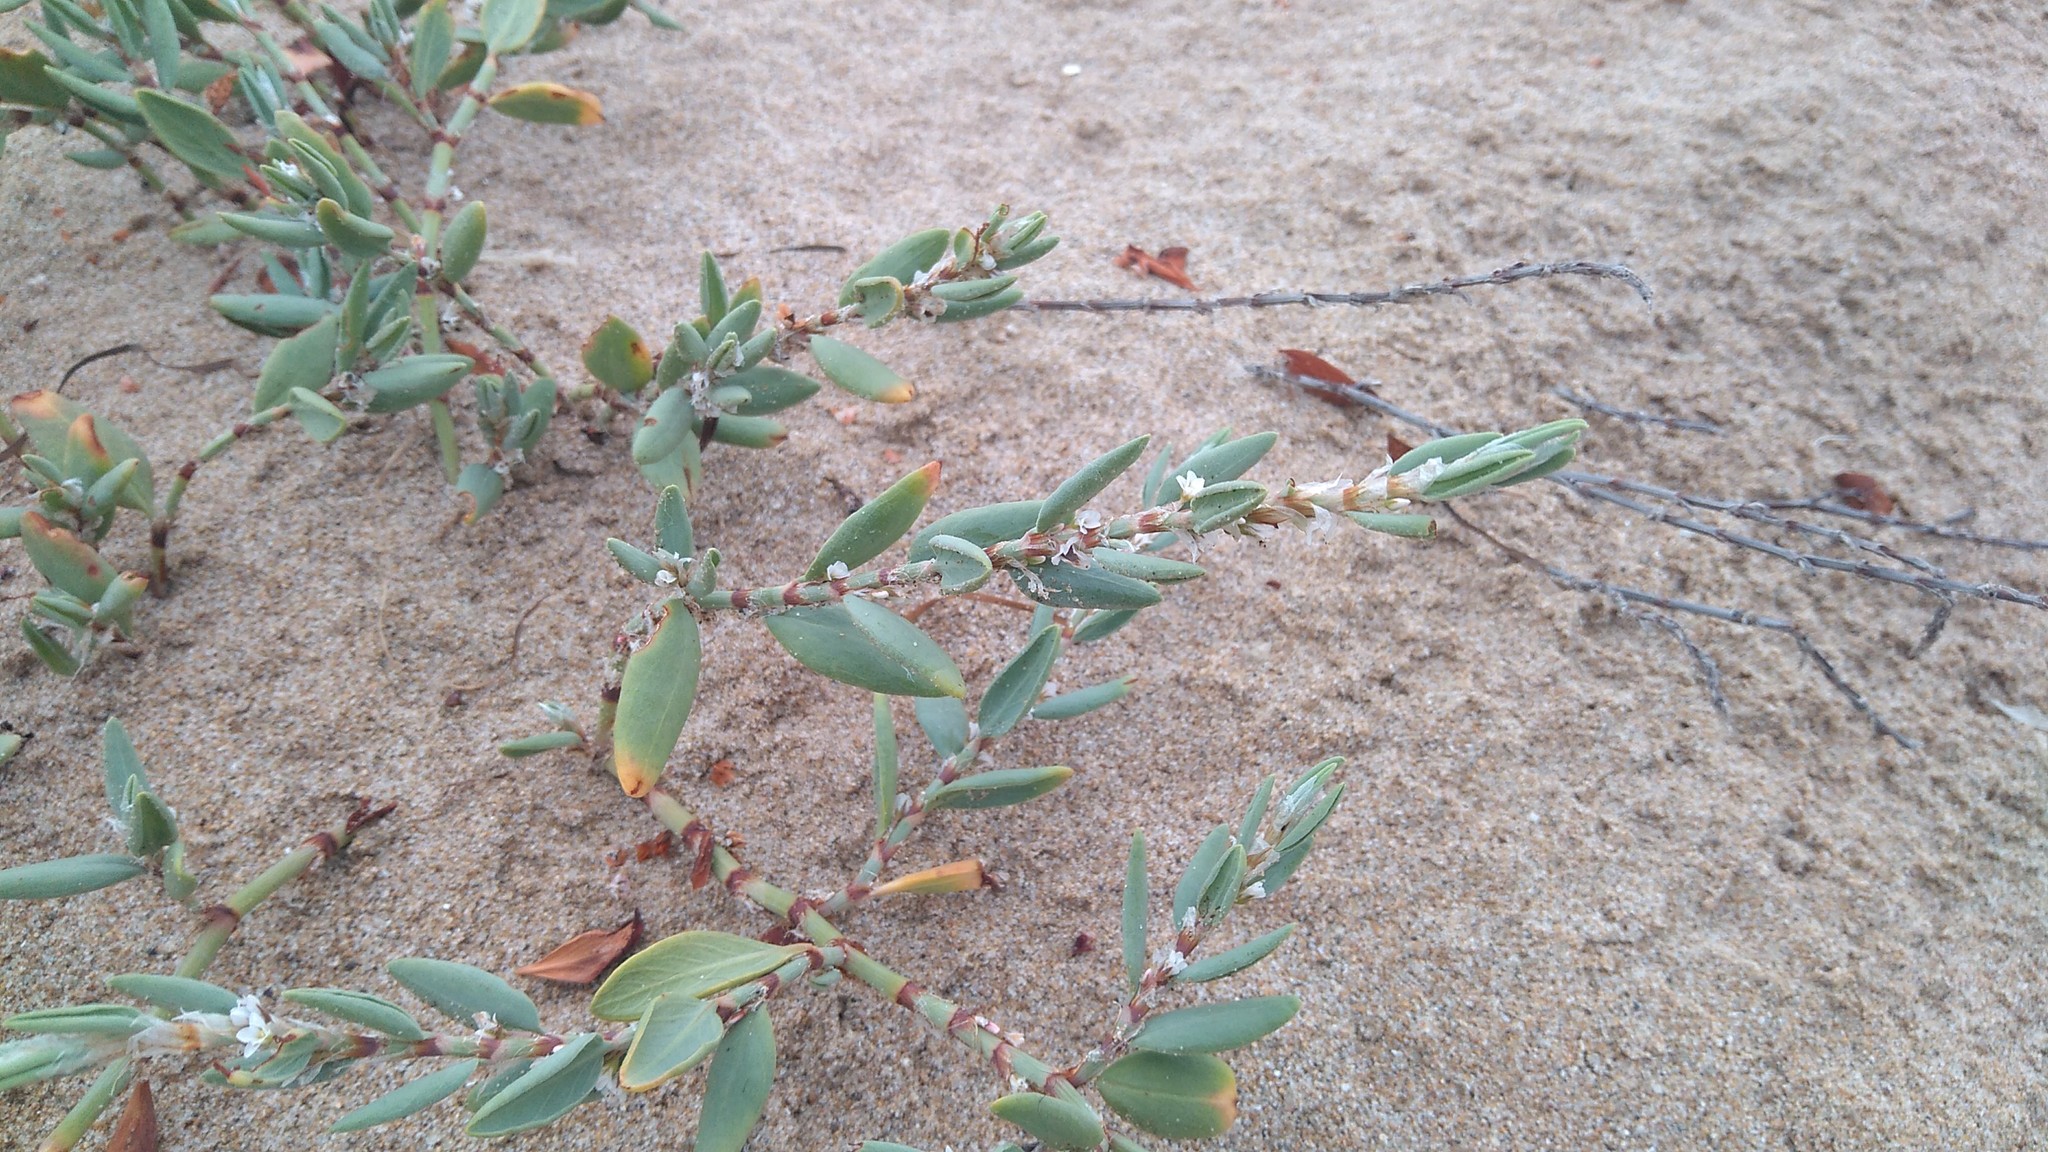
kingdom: Plantae
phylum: Tracheophyta
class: Magnoliopsida
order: Caryophyllales
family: Polygonaceae
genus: Polygonum
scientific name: Polygonum maritimum
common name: Sea knotgrass
